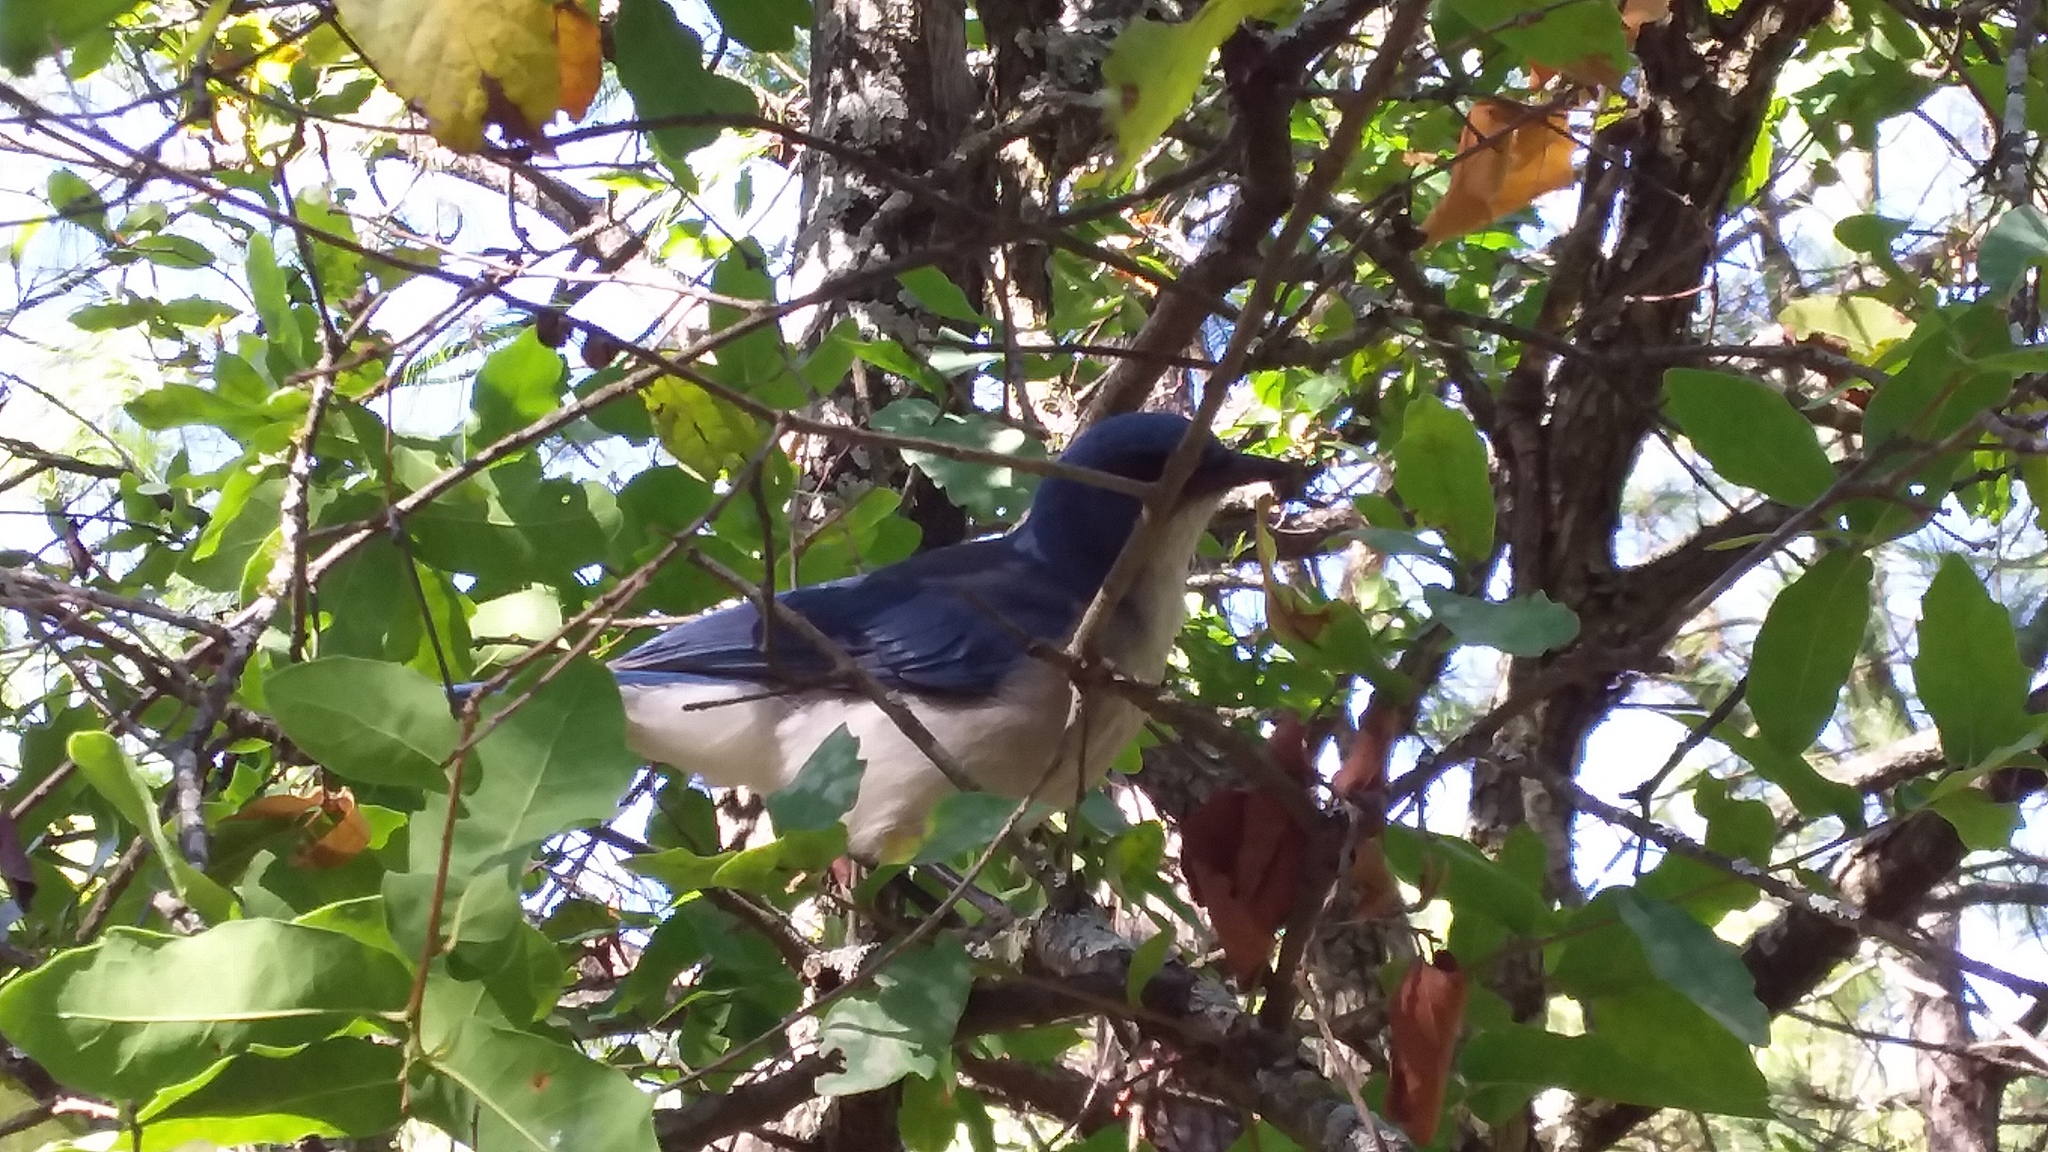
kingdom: Animalia
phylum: Chordata
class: Aves
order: Passeriformes
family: Corvidae
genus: Aphelocoma
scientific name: Aphelocoma wollweberi
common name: Mexican jay
